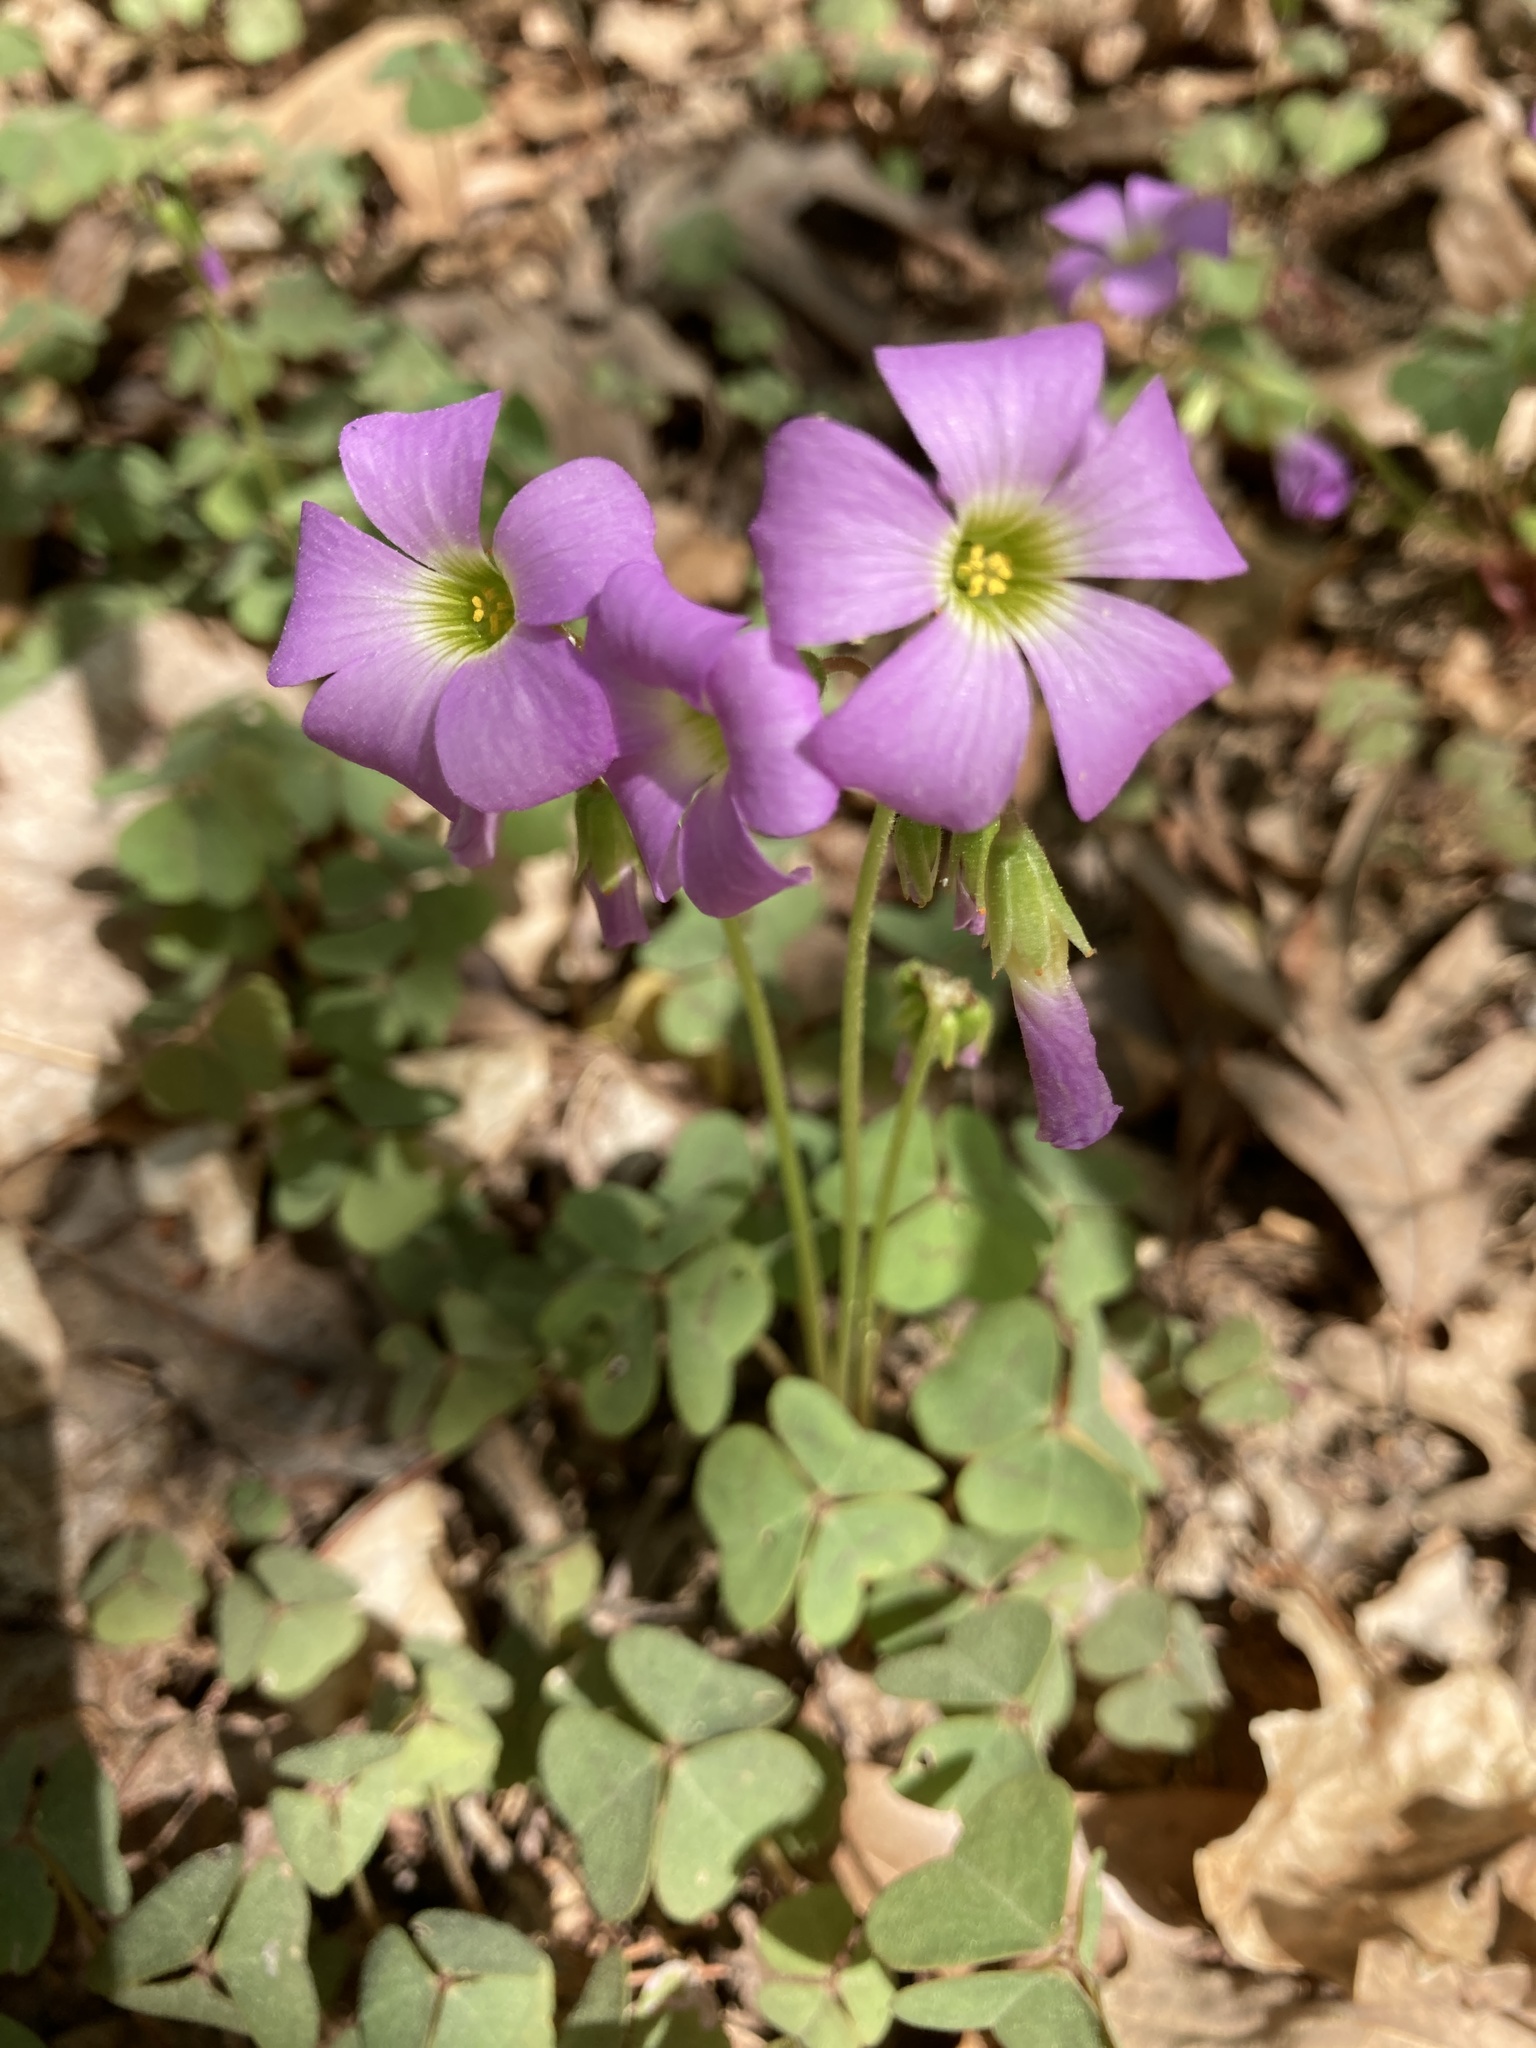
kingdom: Plantae
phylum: Tracheophyta
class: Magnoliopsida
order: Oxalidales
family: Oxalidaceae
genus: Oxalis
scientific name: Oxalis violacea
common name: Violet wood-sorrel
